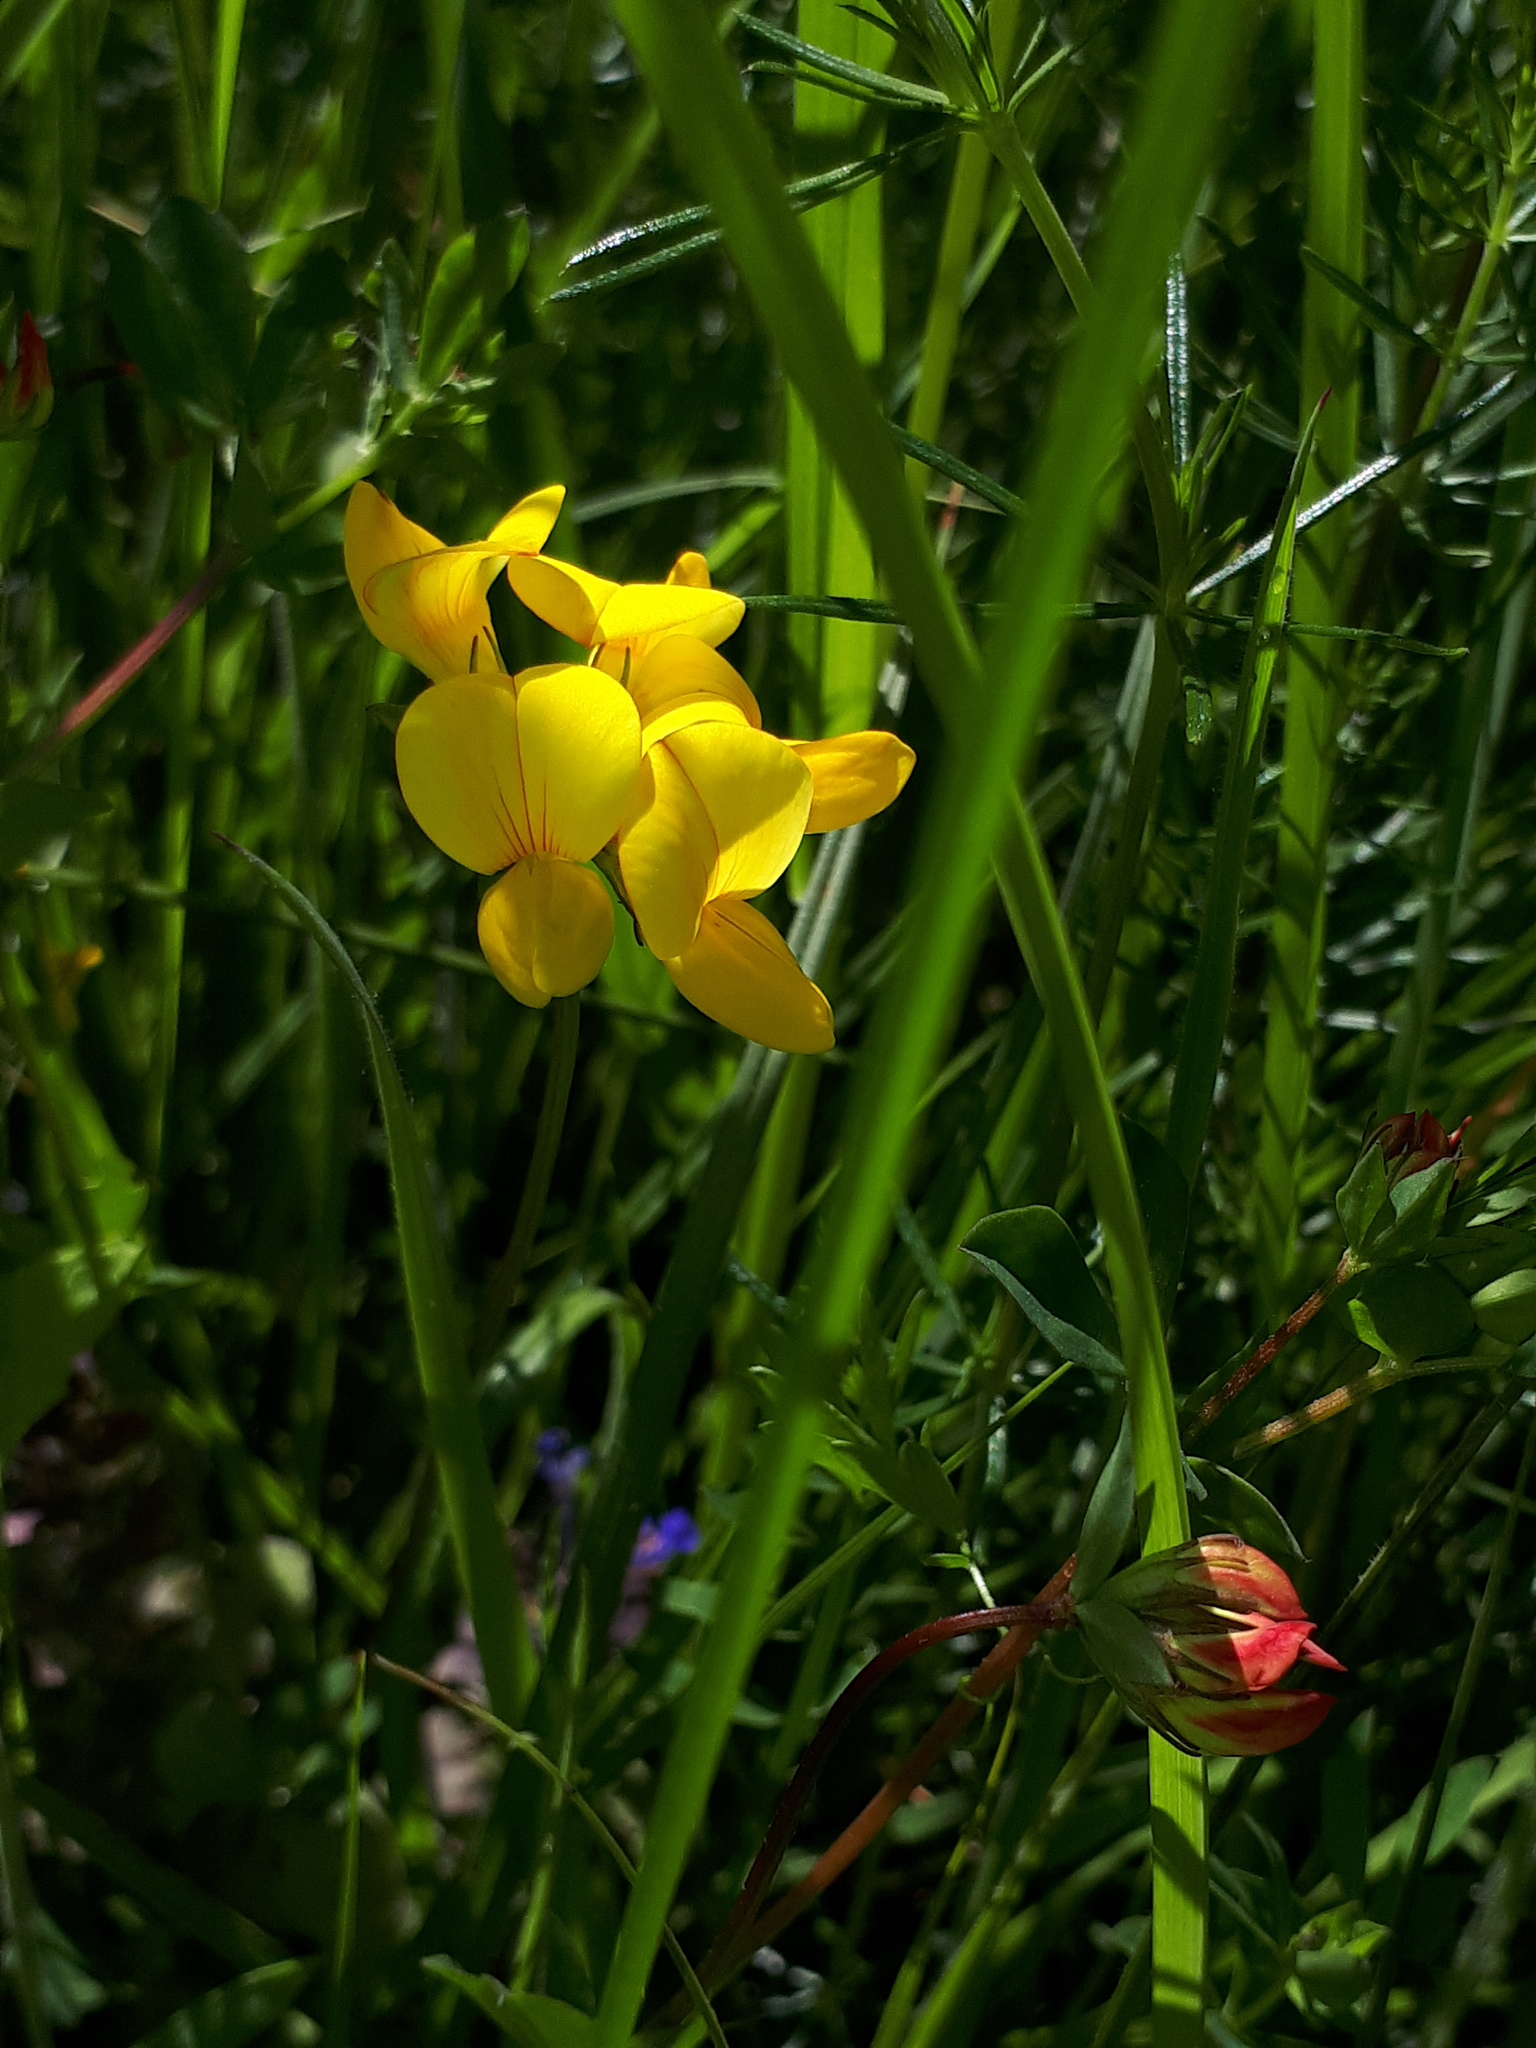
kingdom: Plantae
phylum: Tracheophyta
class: Magnoliopsida
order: Fabales
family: Fabaceae
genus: Lotus
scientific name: Lotus corniculatus
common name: Common bird's-foot-trefoil
